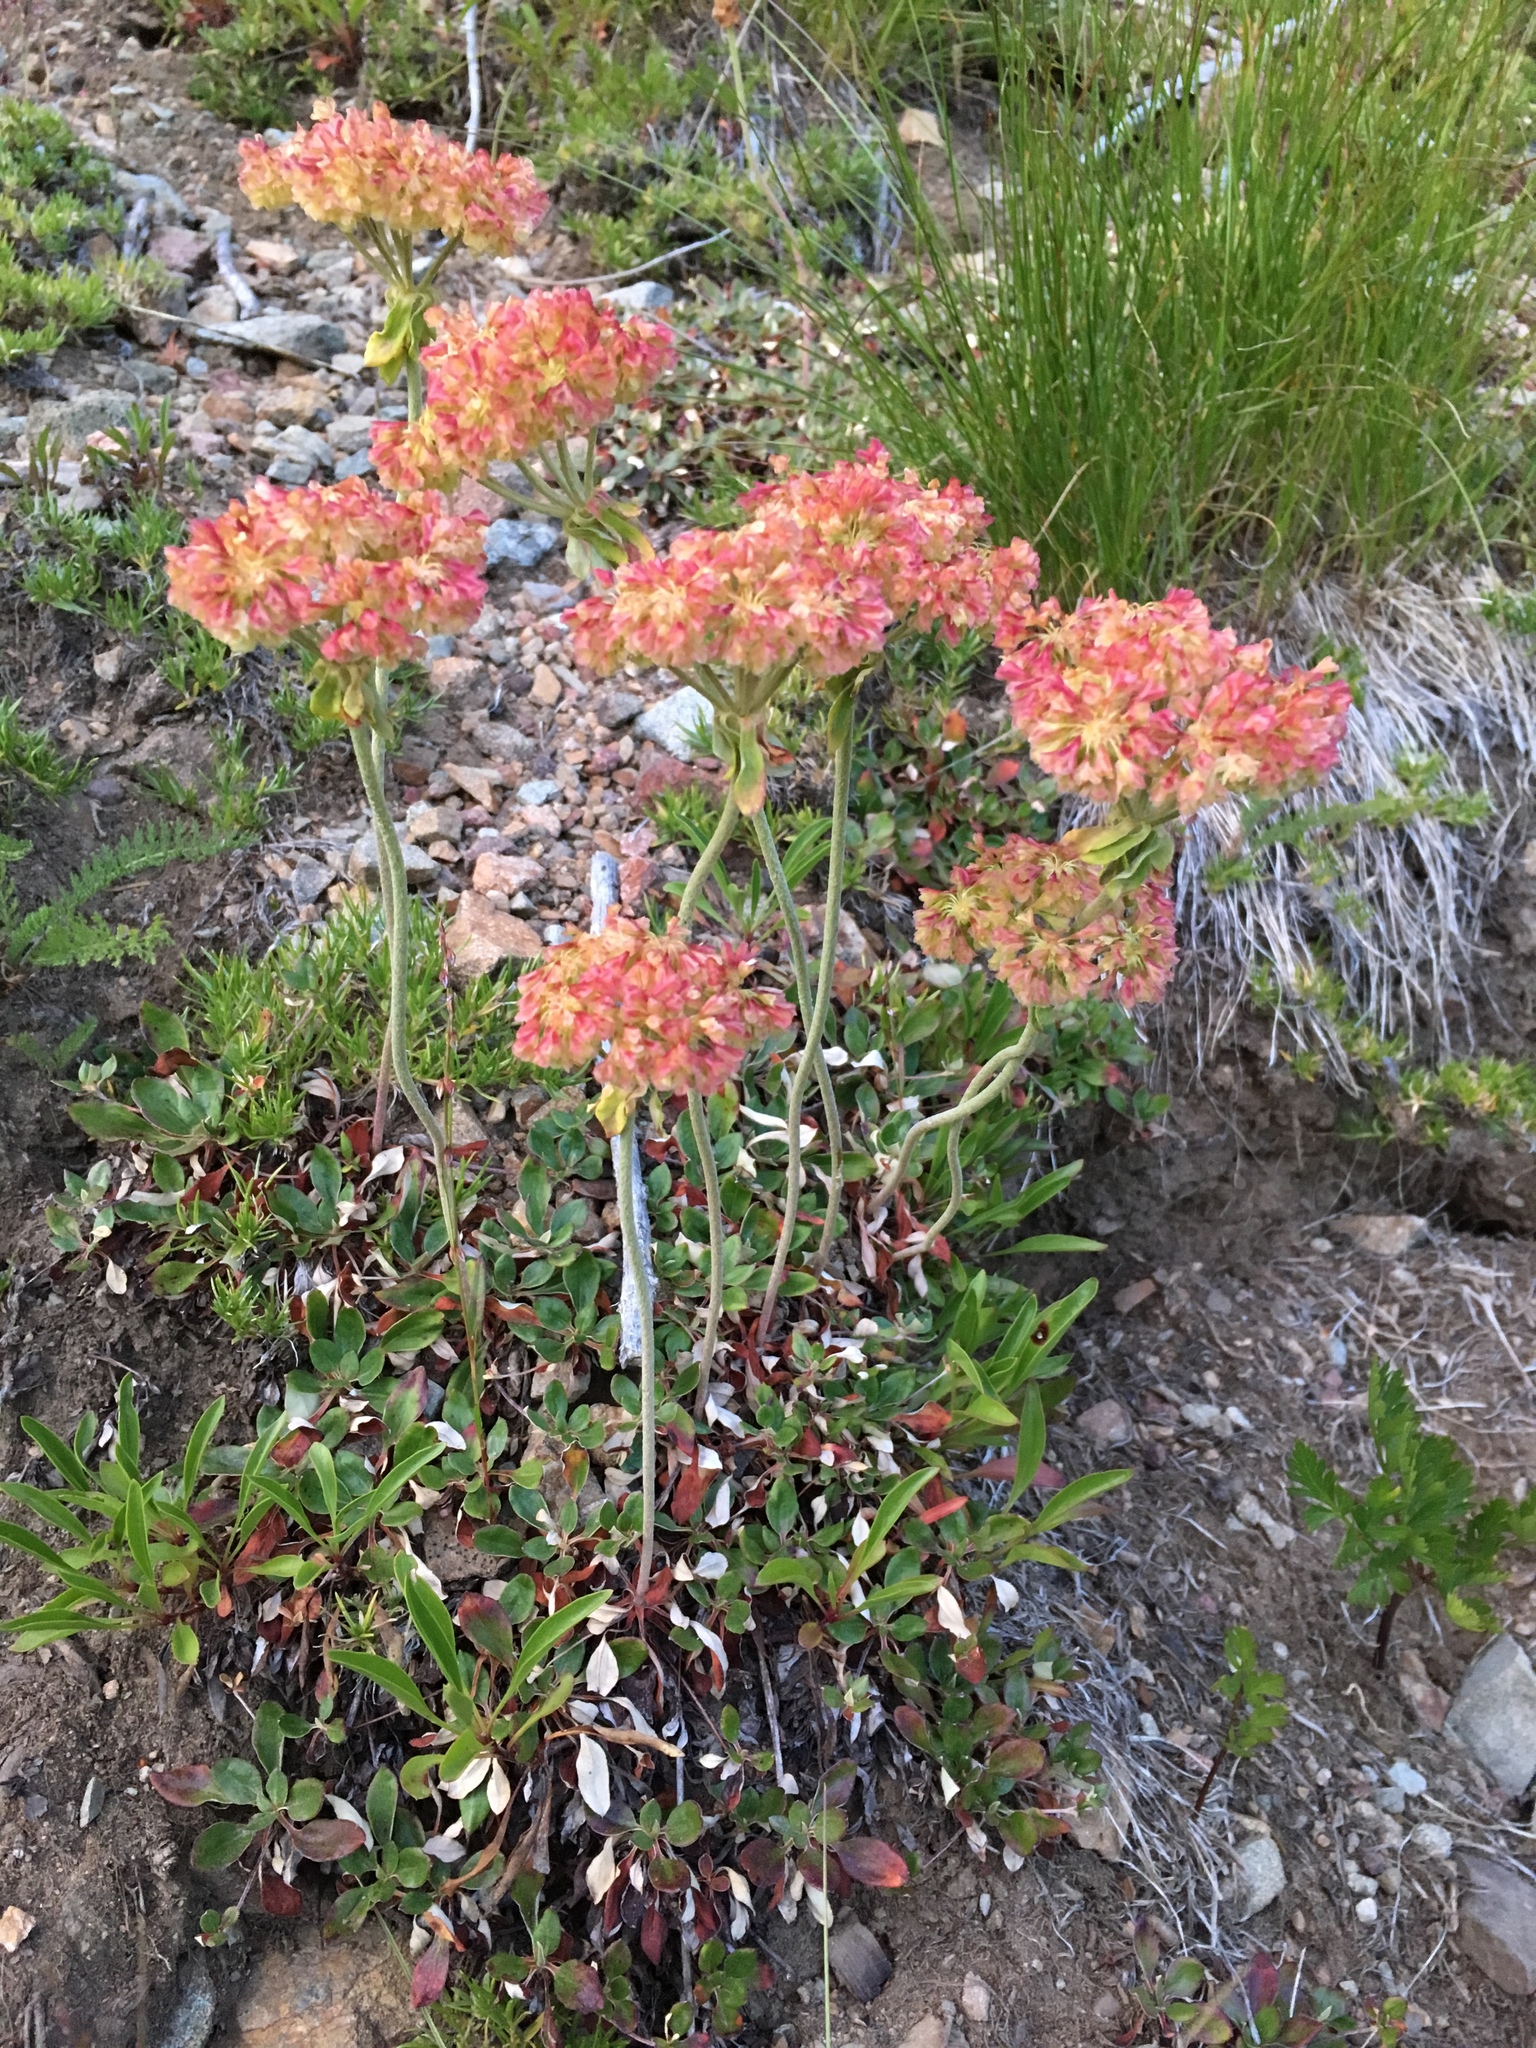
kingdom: Plantae
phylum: Tracheophyta
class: Magnoliopsida
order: Caryophyllales
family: Polygonaceae
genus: Eriogonum
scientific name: Eriogonum umbellatum
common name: Sulfur-buckwheat
